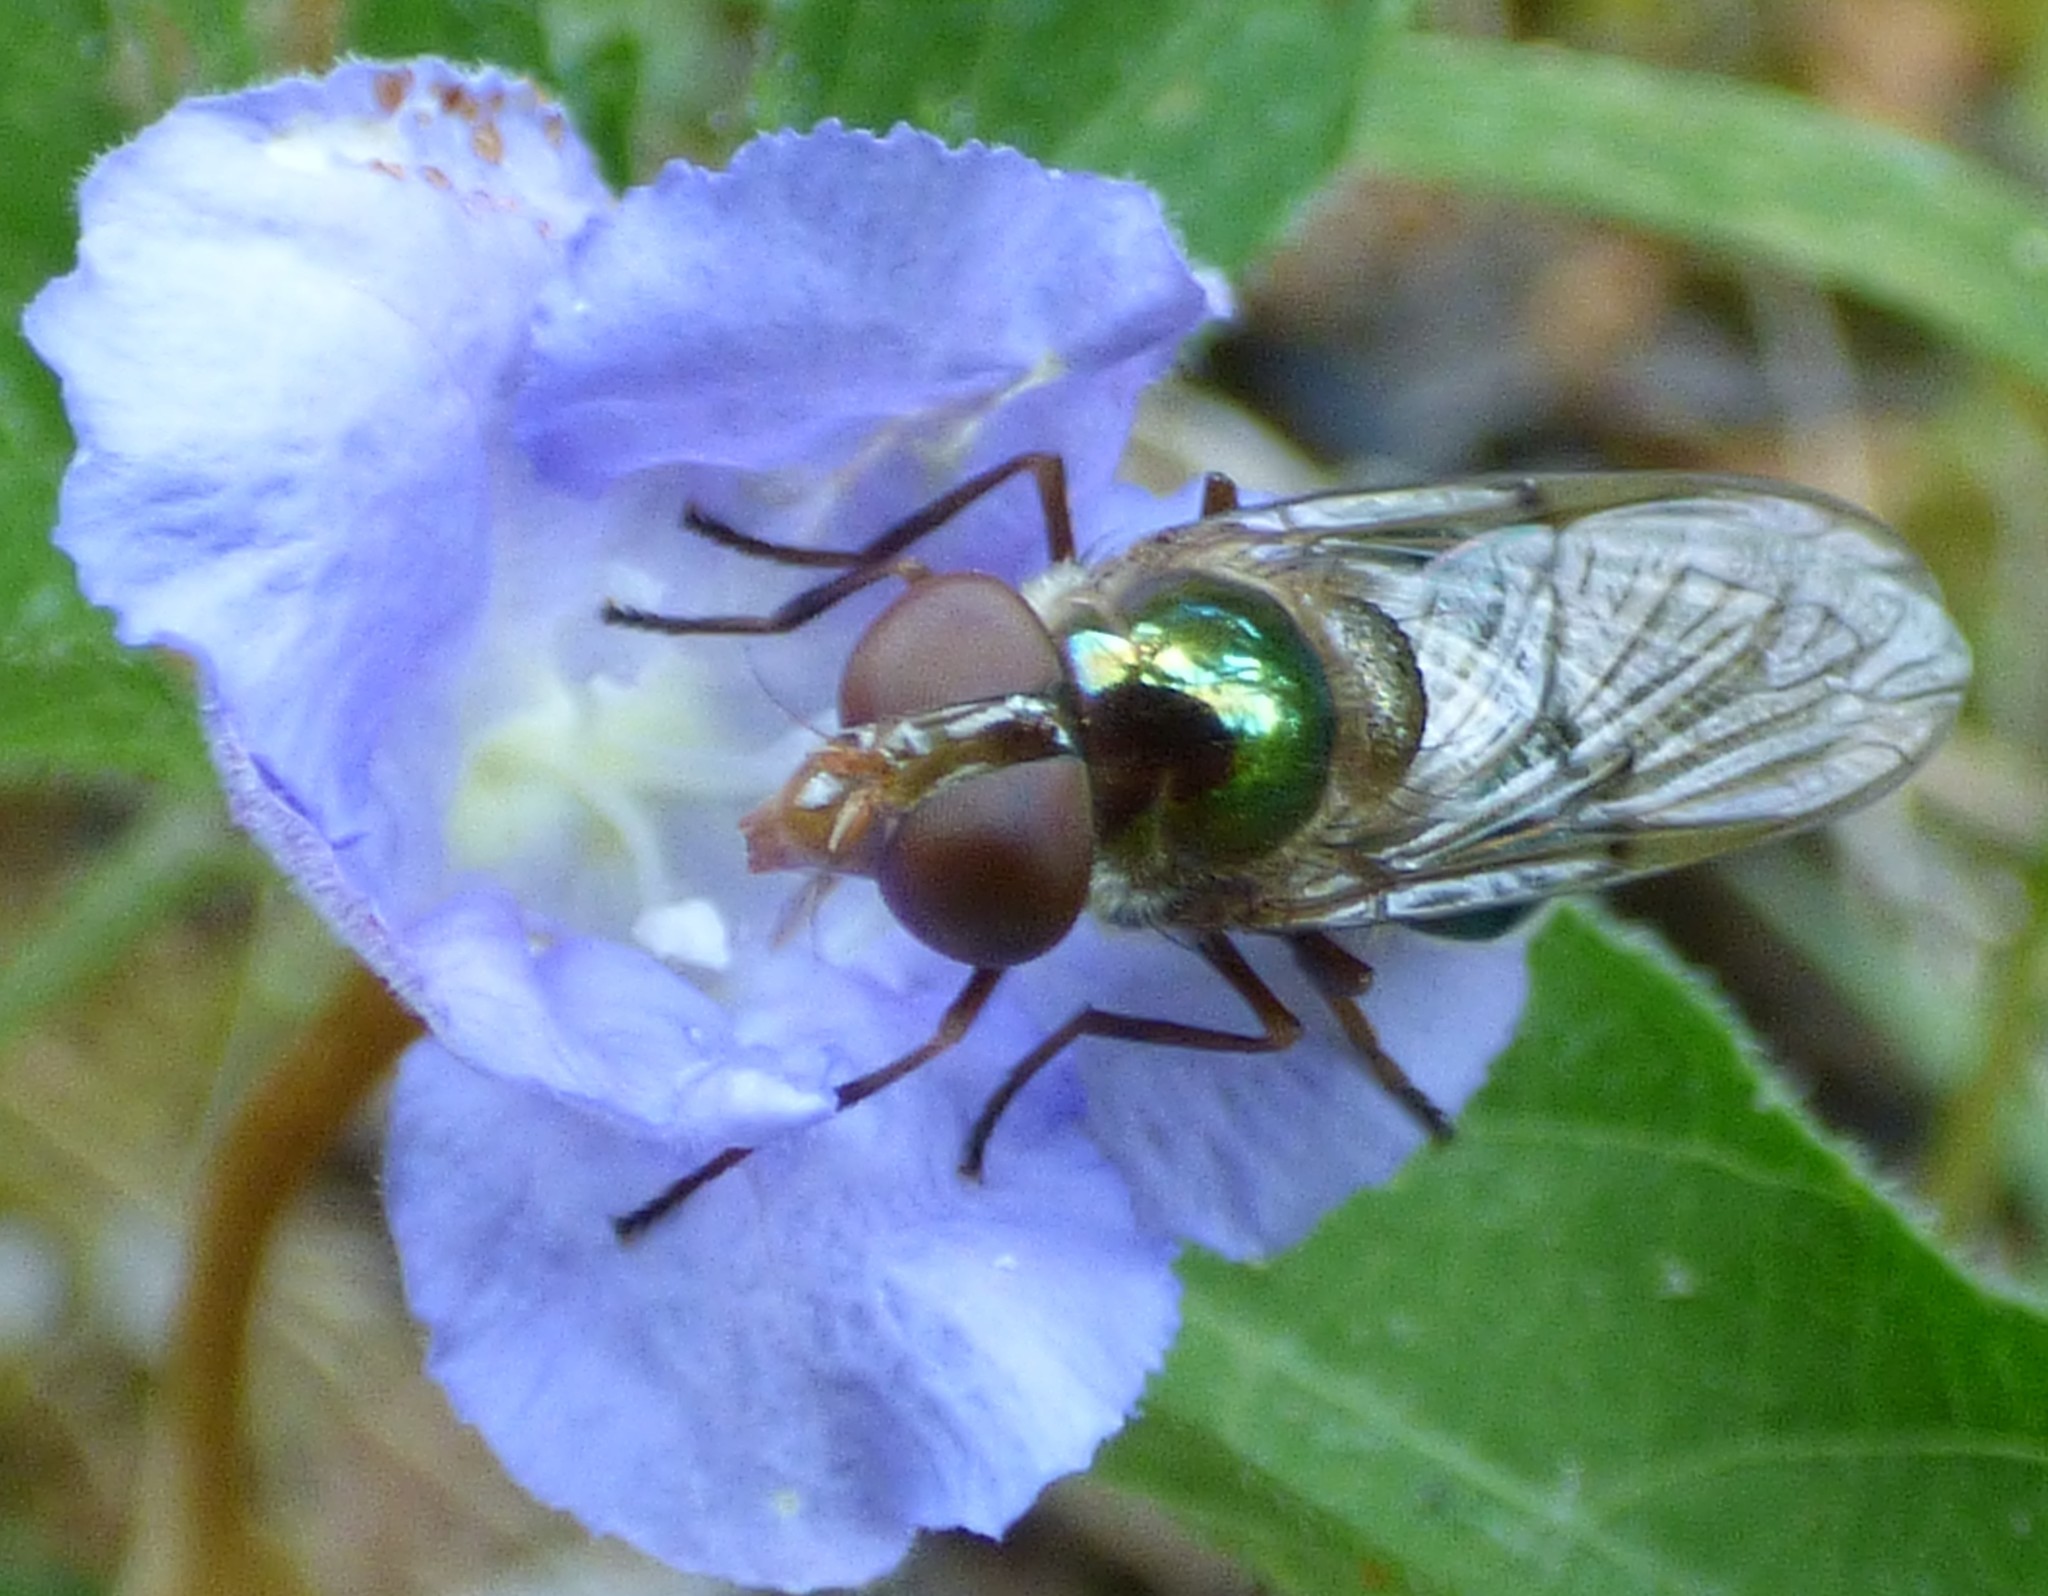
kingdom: Animalia
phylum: Arthropoda
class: Insecta
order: Diptera
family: Syrphidae
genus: Copestylum
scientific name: Copestylum vesicularium
